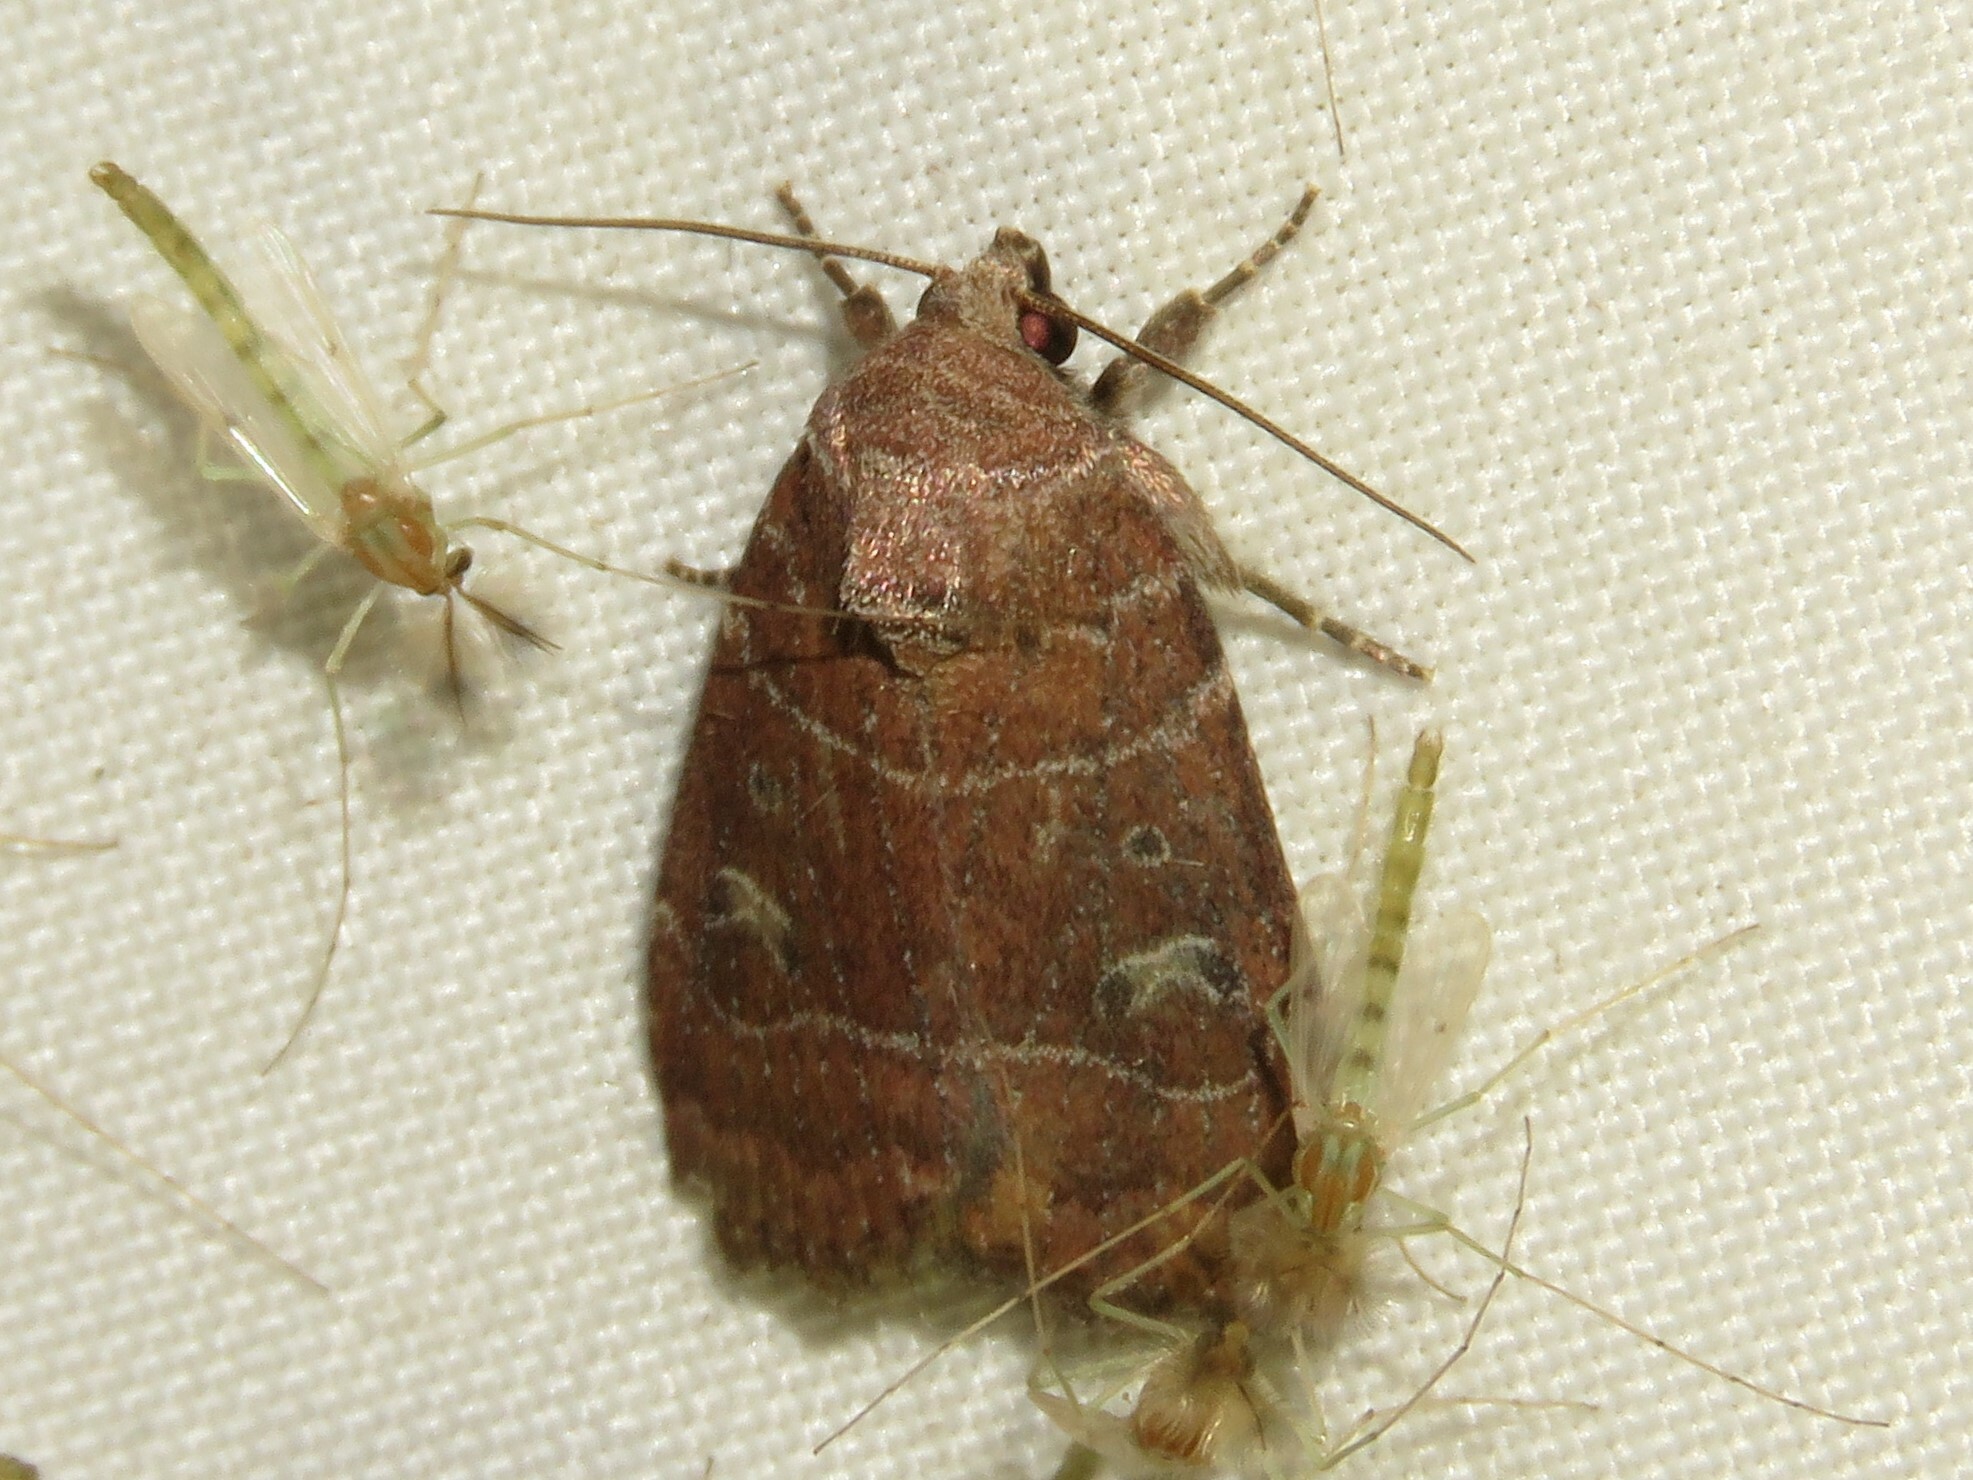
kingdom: Animalia
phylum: Arthropoda
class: Insecta
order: Lepidoptera
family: Noctuidae
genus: Elaphria
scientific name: Elaphria grata
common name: Grateful midget moth
